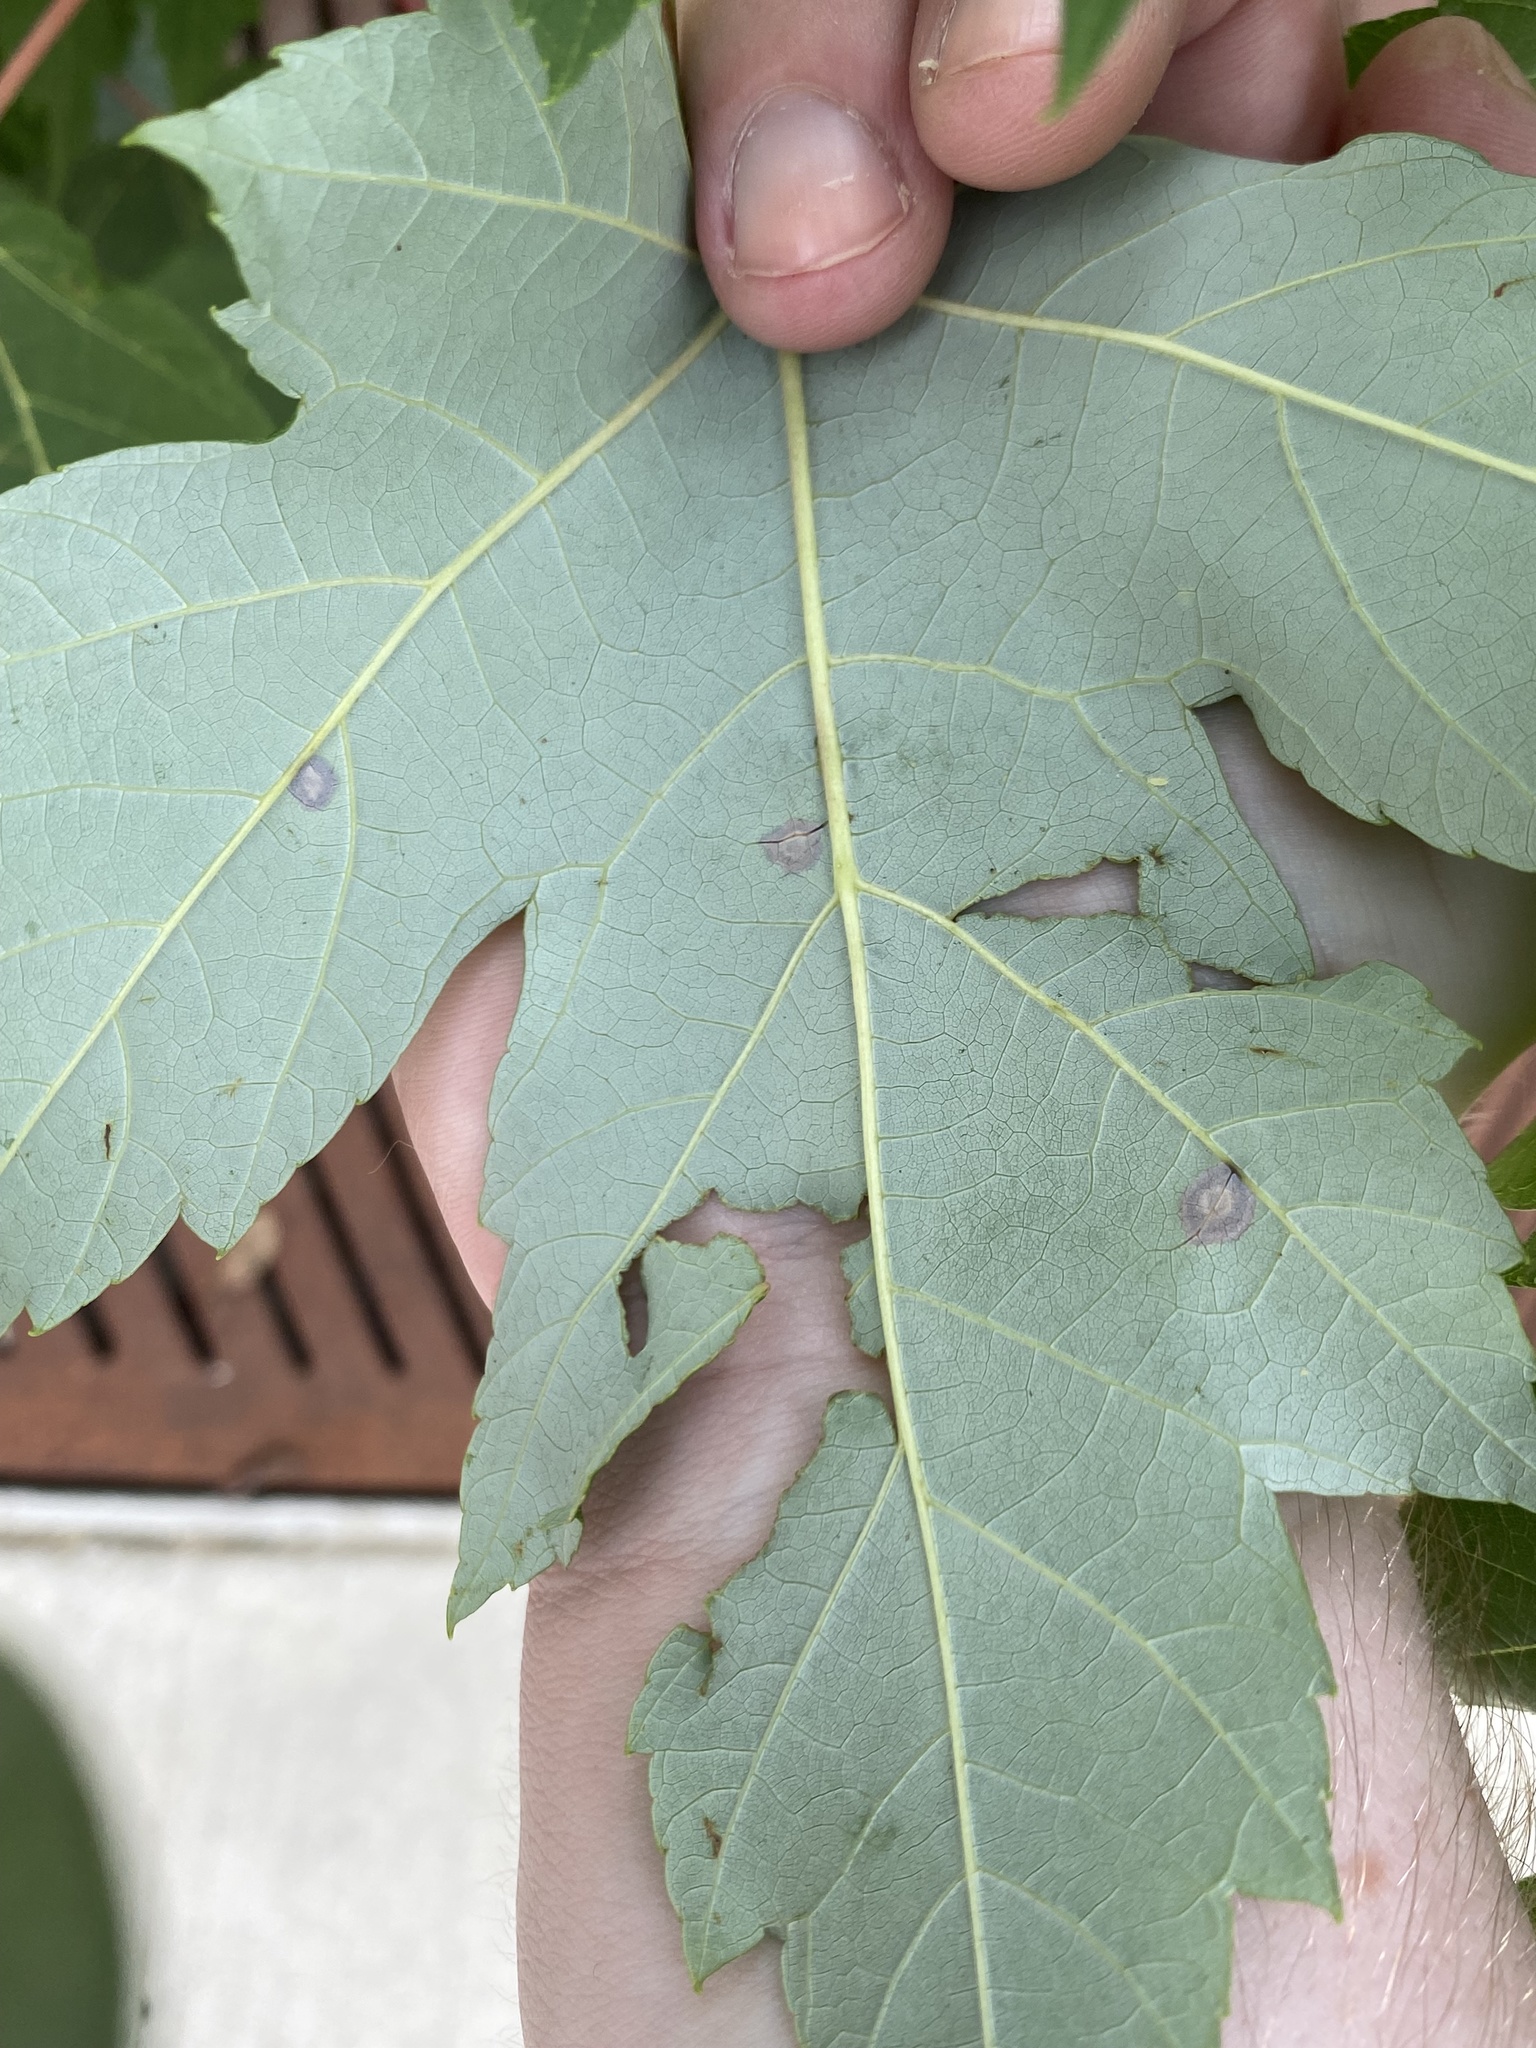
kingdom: Animalia
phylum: Arthropoda
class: Insecta
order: Diptera
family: Cecidomyiidae
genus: Acericecis
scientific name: Acericecis ocellaris
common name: Ocellate gall midge
